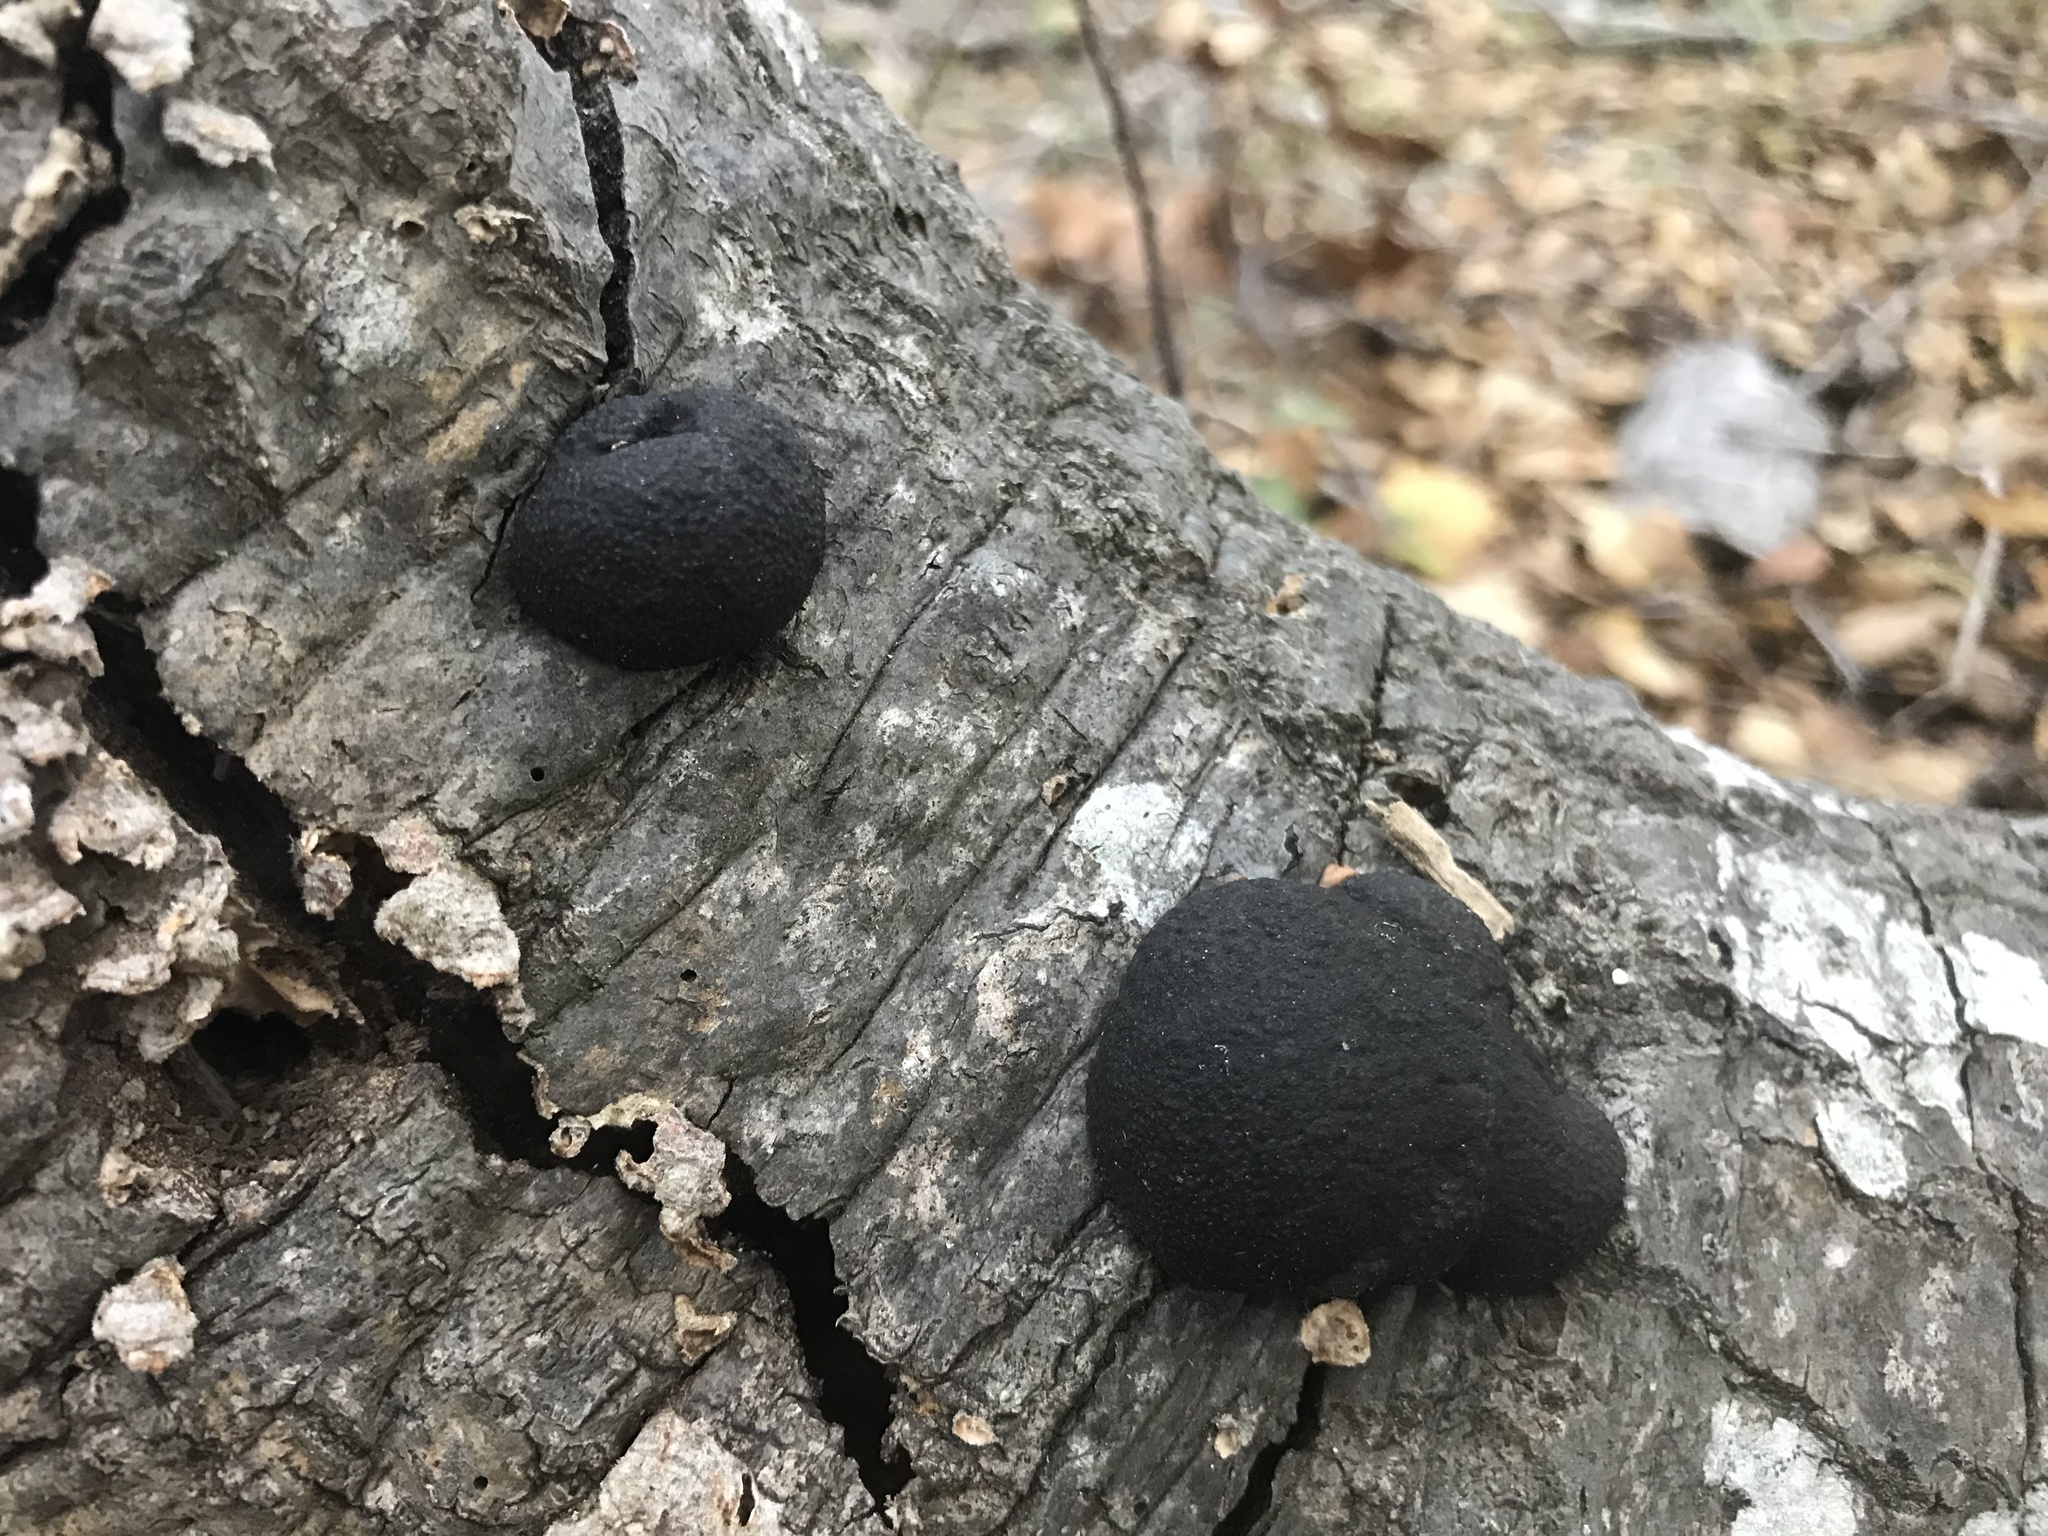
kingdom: Fungi
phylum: Ascomycota
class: Sordariomycetes
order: Xylariales
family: Hypoxylaceae
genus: Annulohypoxylon
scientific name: Annulohypoxylon thouarsianum
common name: Cramp balls
